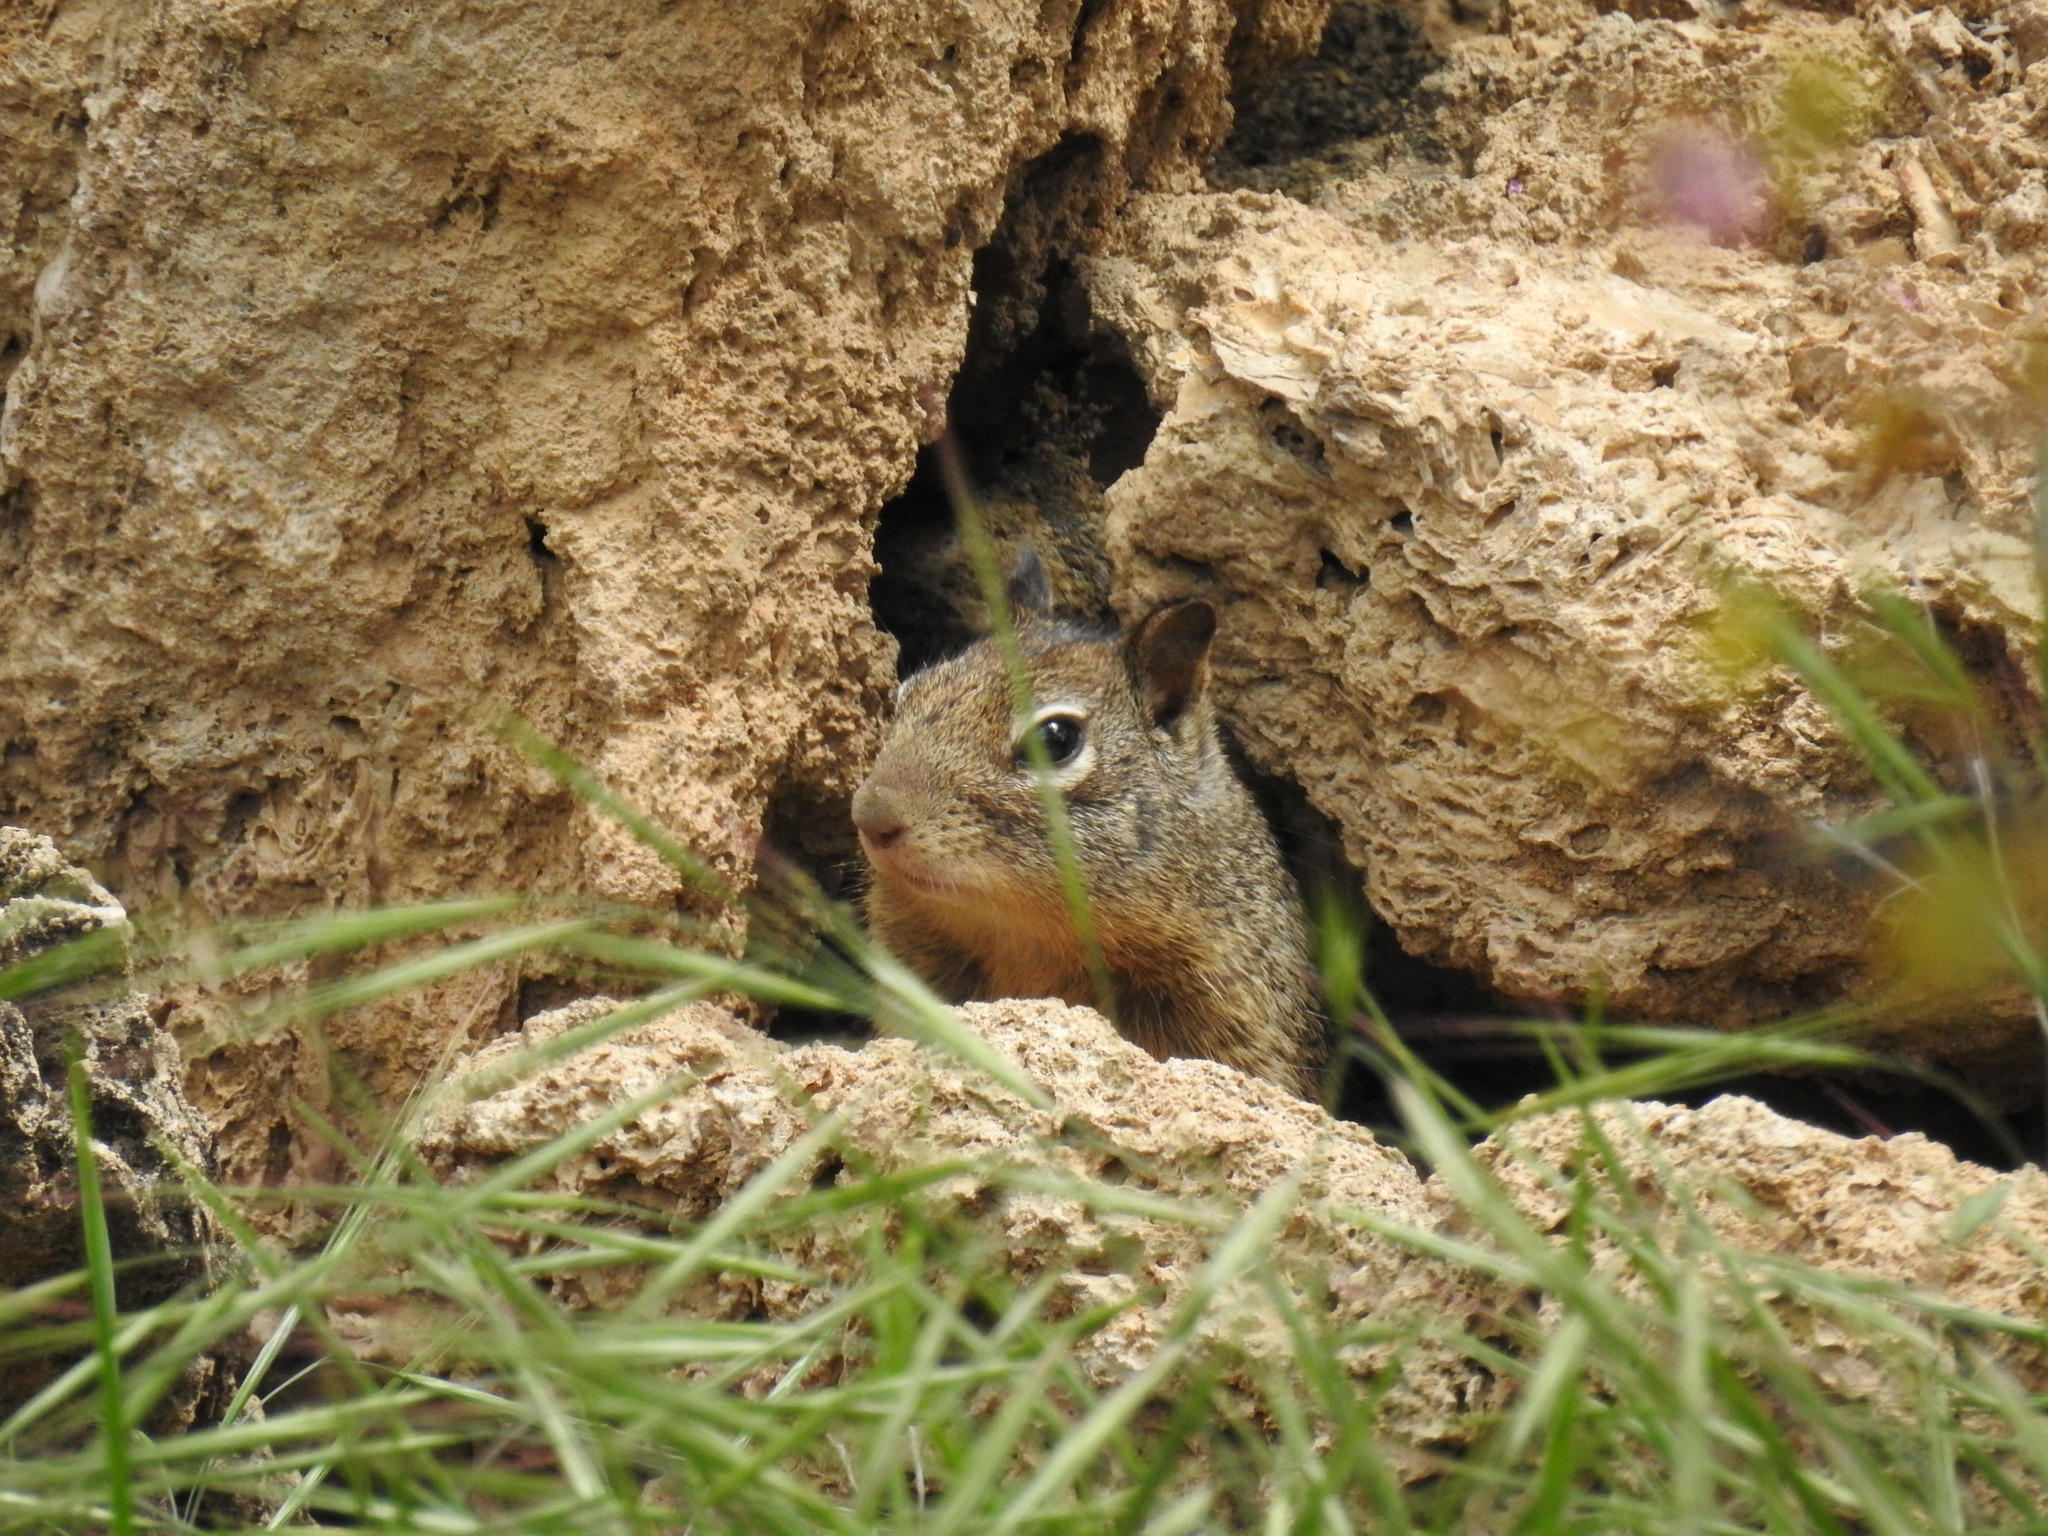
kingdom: Animalia
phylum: Chordata
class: Mammalia
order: Rodentia
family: Sciuridae
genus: Otospermophilus
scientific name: Otospermophilus beecheyi
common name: California ground squirrel
